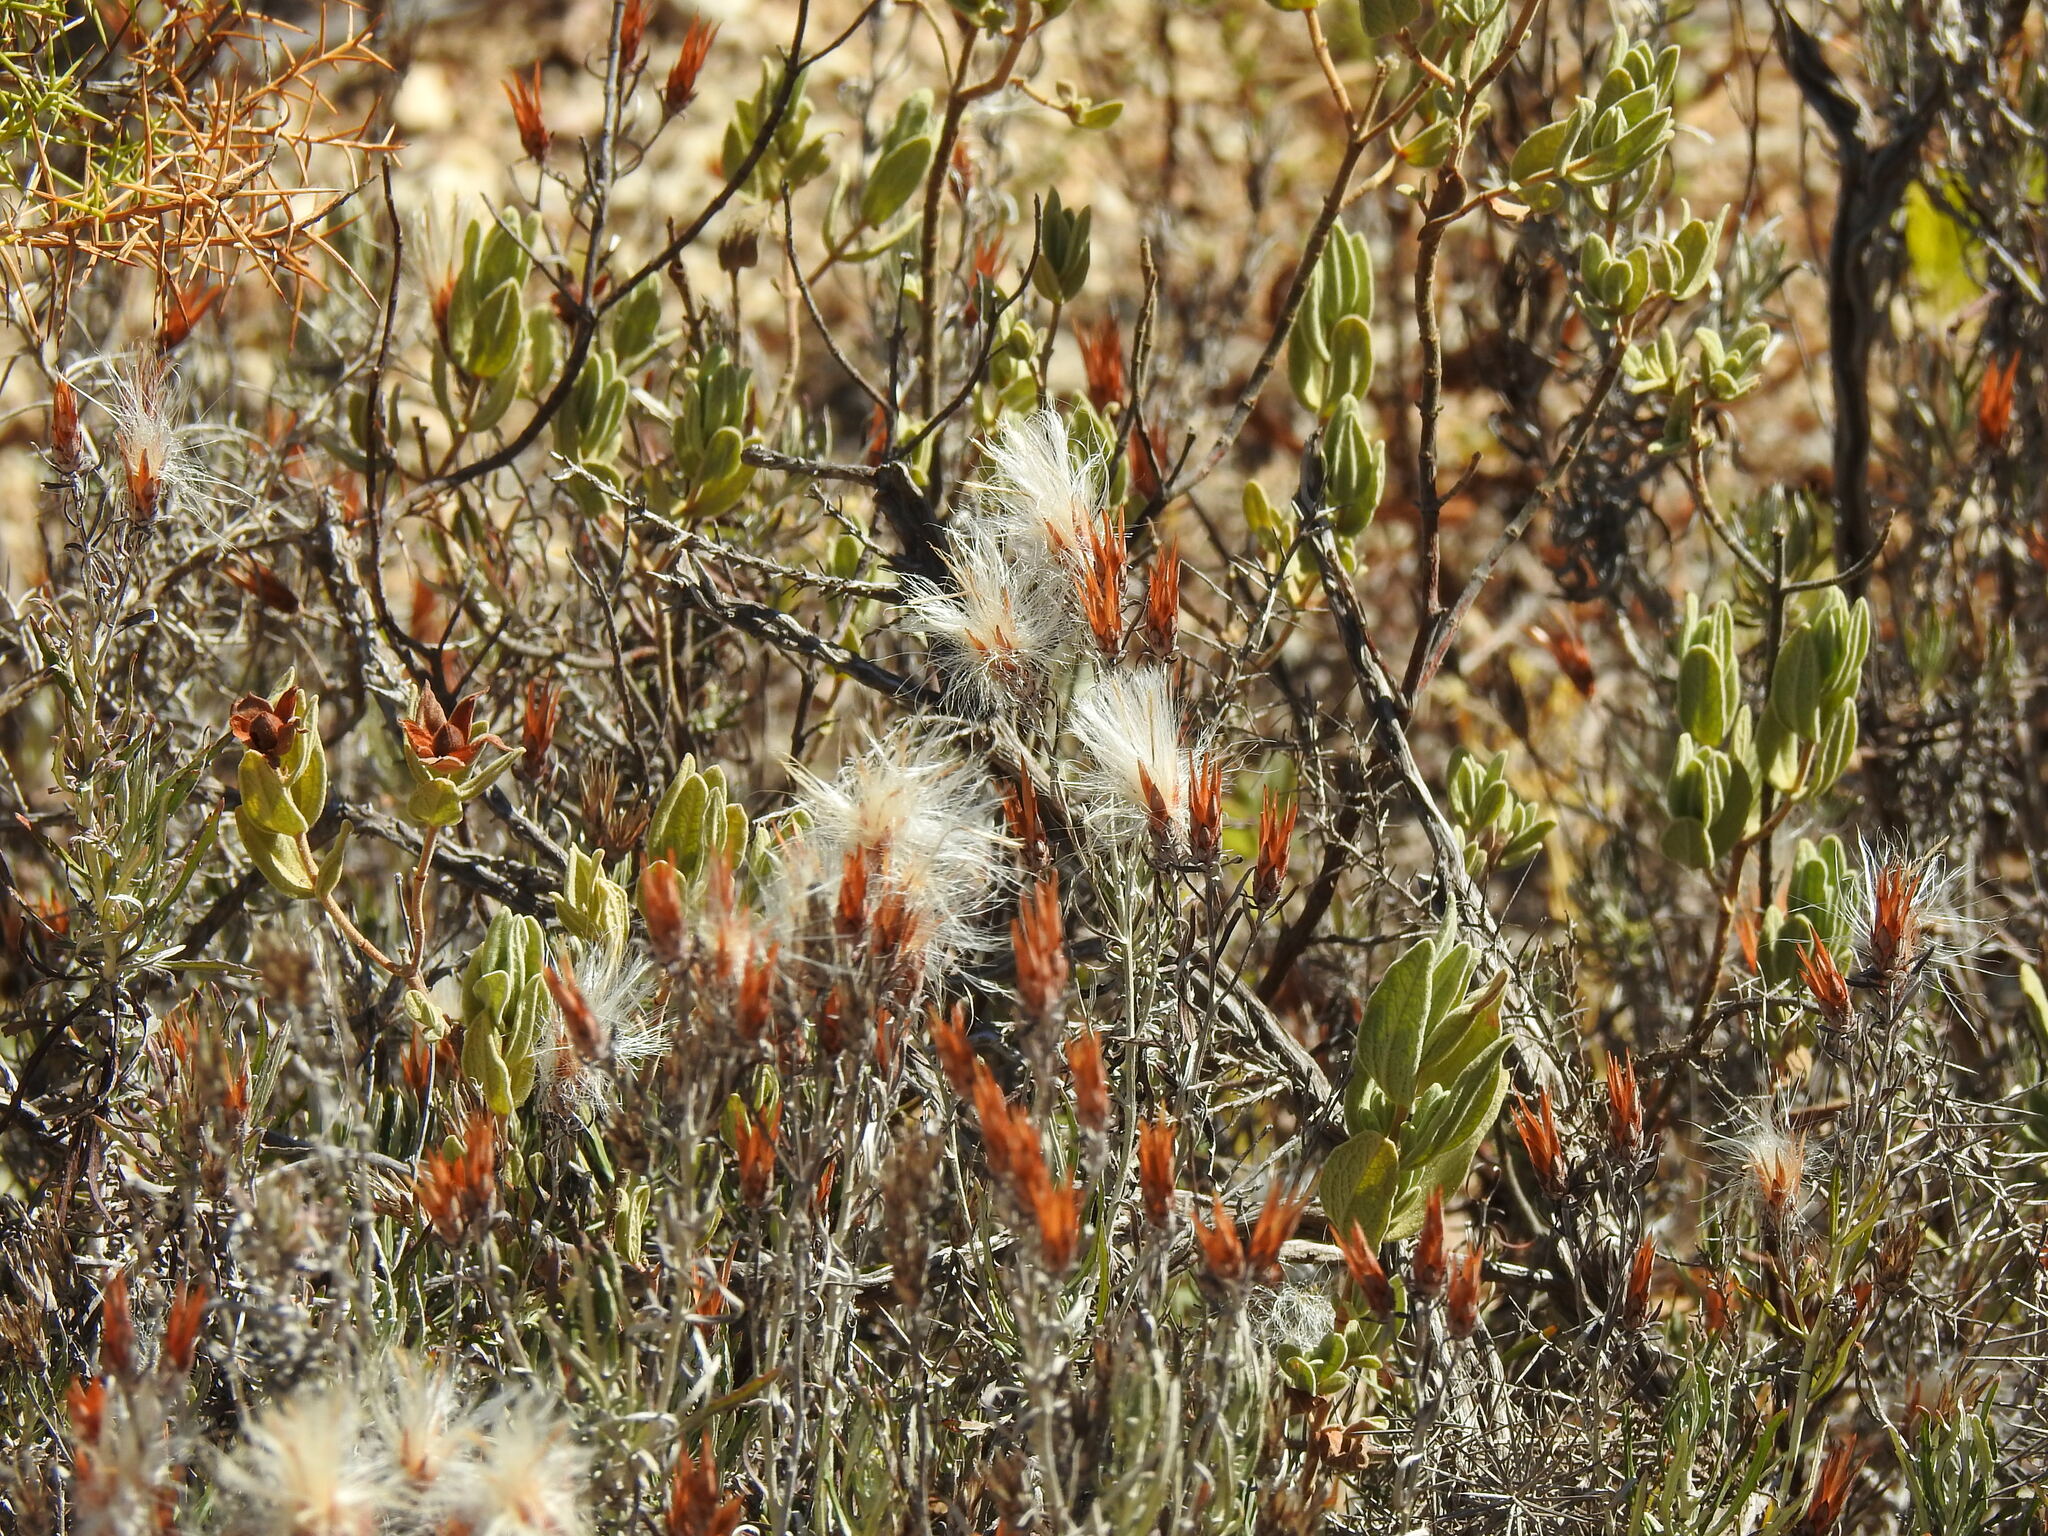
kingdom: Plantae
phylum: Tracheophyta
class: Magnoliopsida
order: Asterales
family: Asteraceae
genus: Staehelina
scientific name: Staehelina dubia
